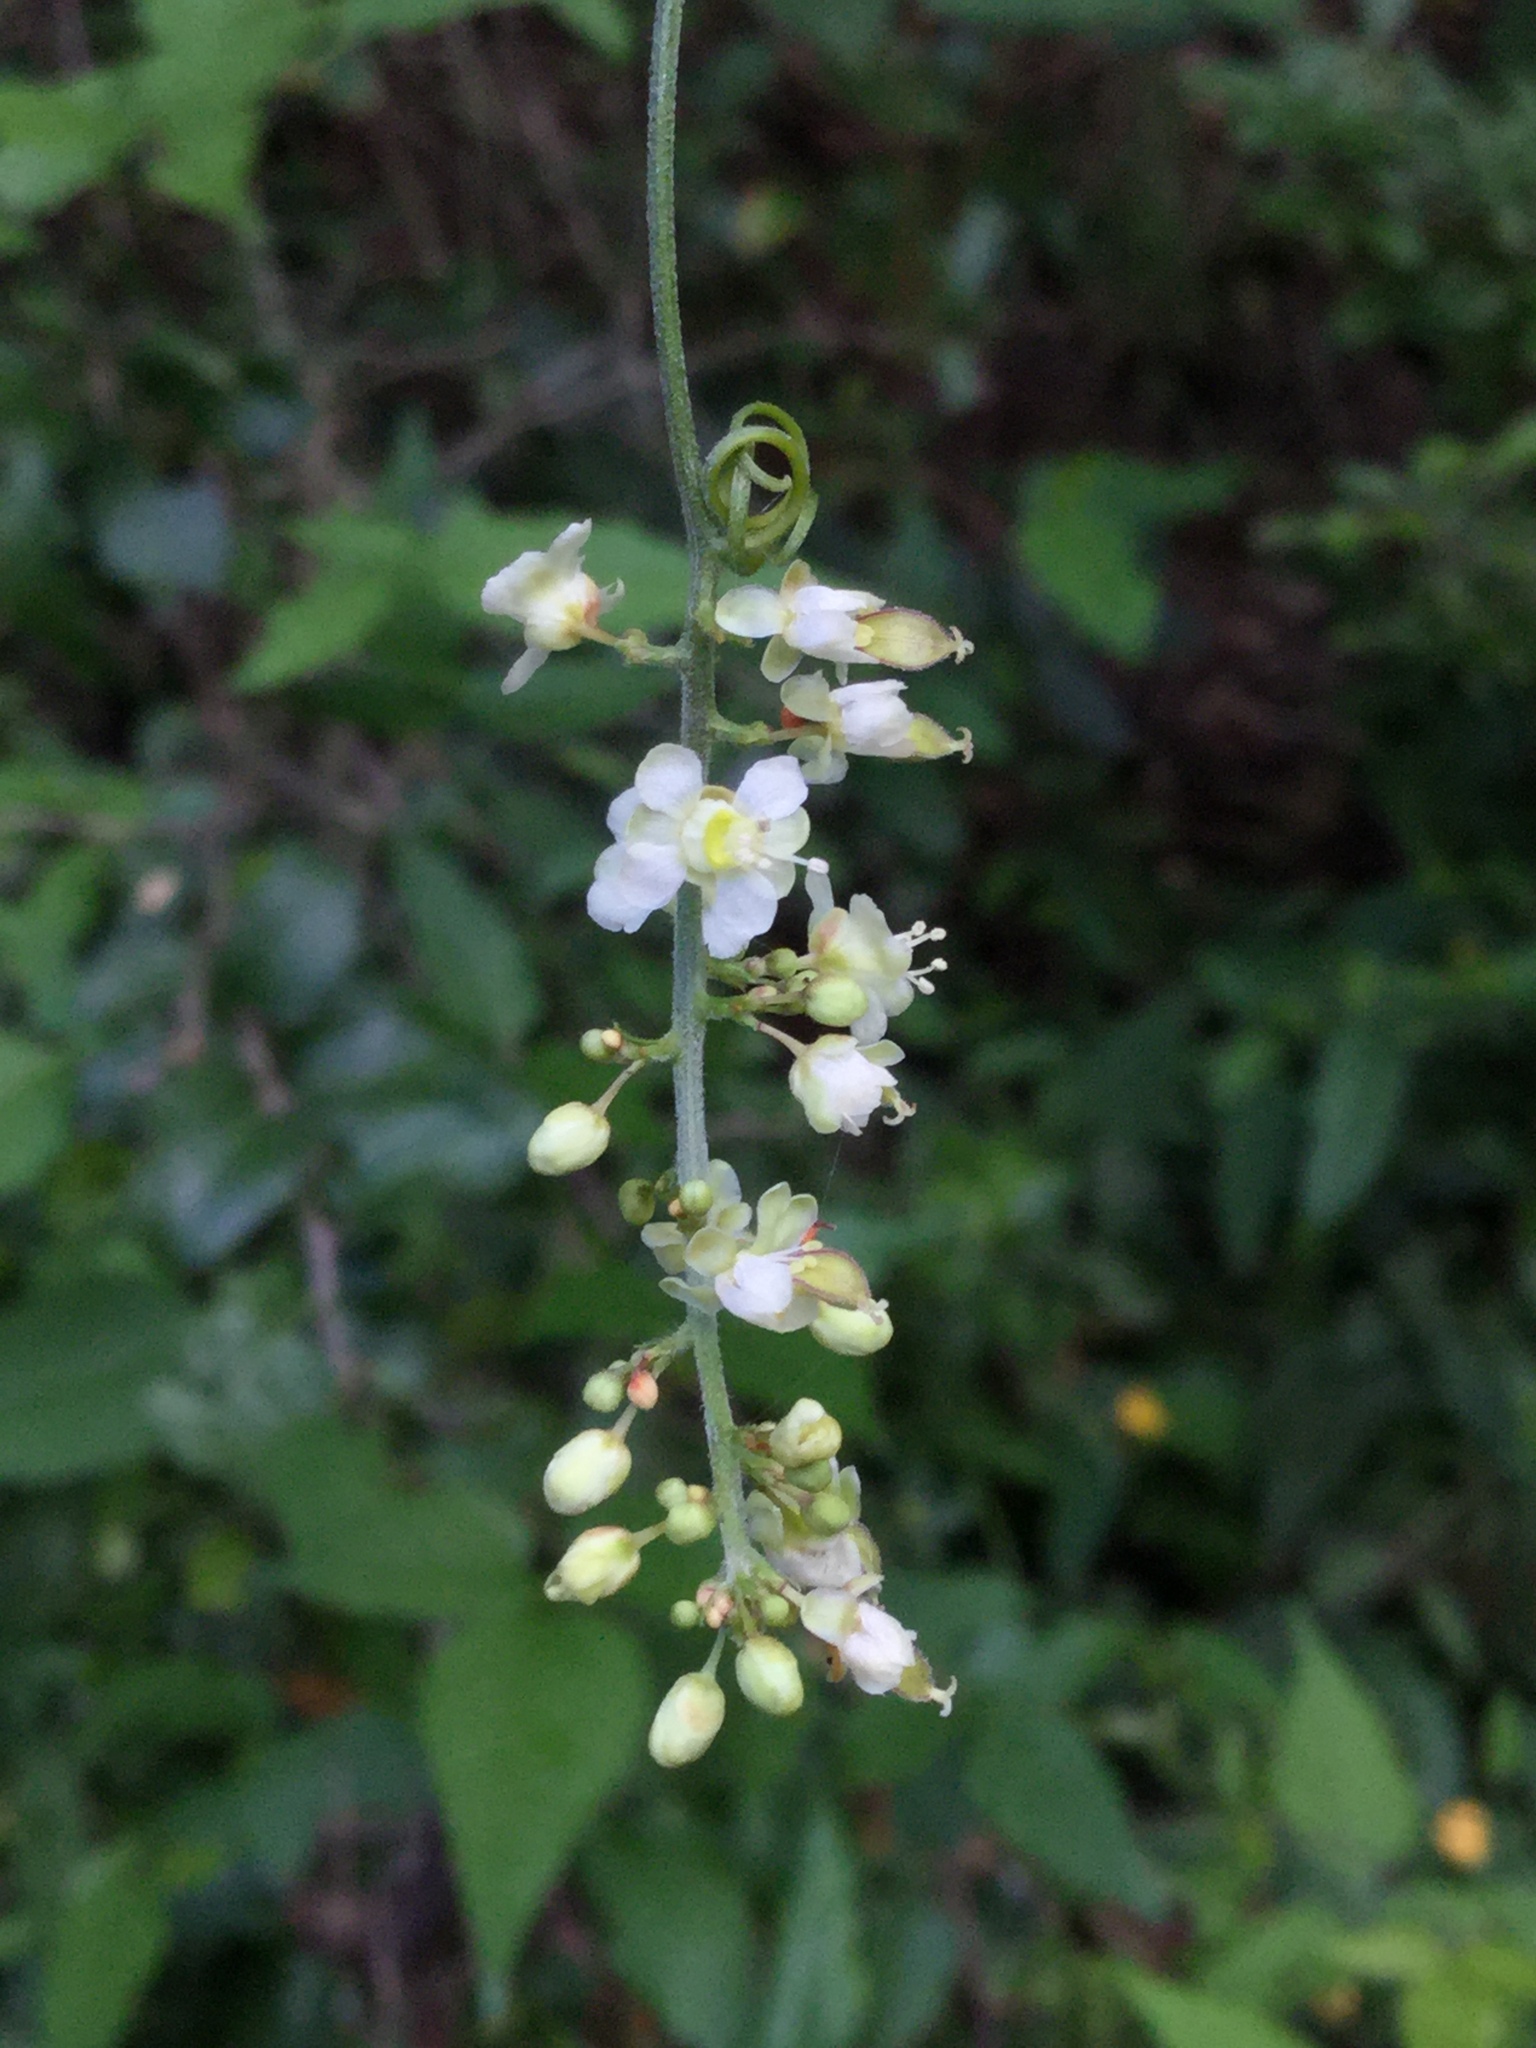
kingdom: Plantae
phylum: Tracheophyta
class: Magnoliopsida
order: Sapindales
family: Sapindaceae
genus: Urvillea
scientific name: Urvillea ulmacea
